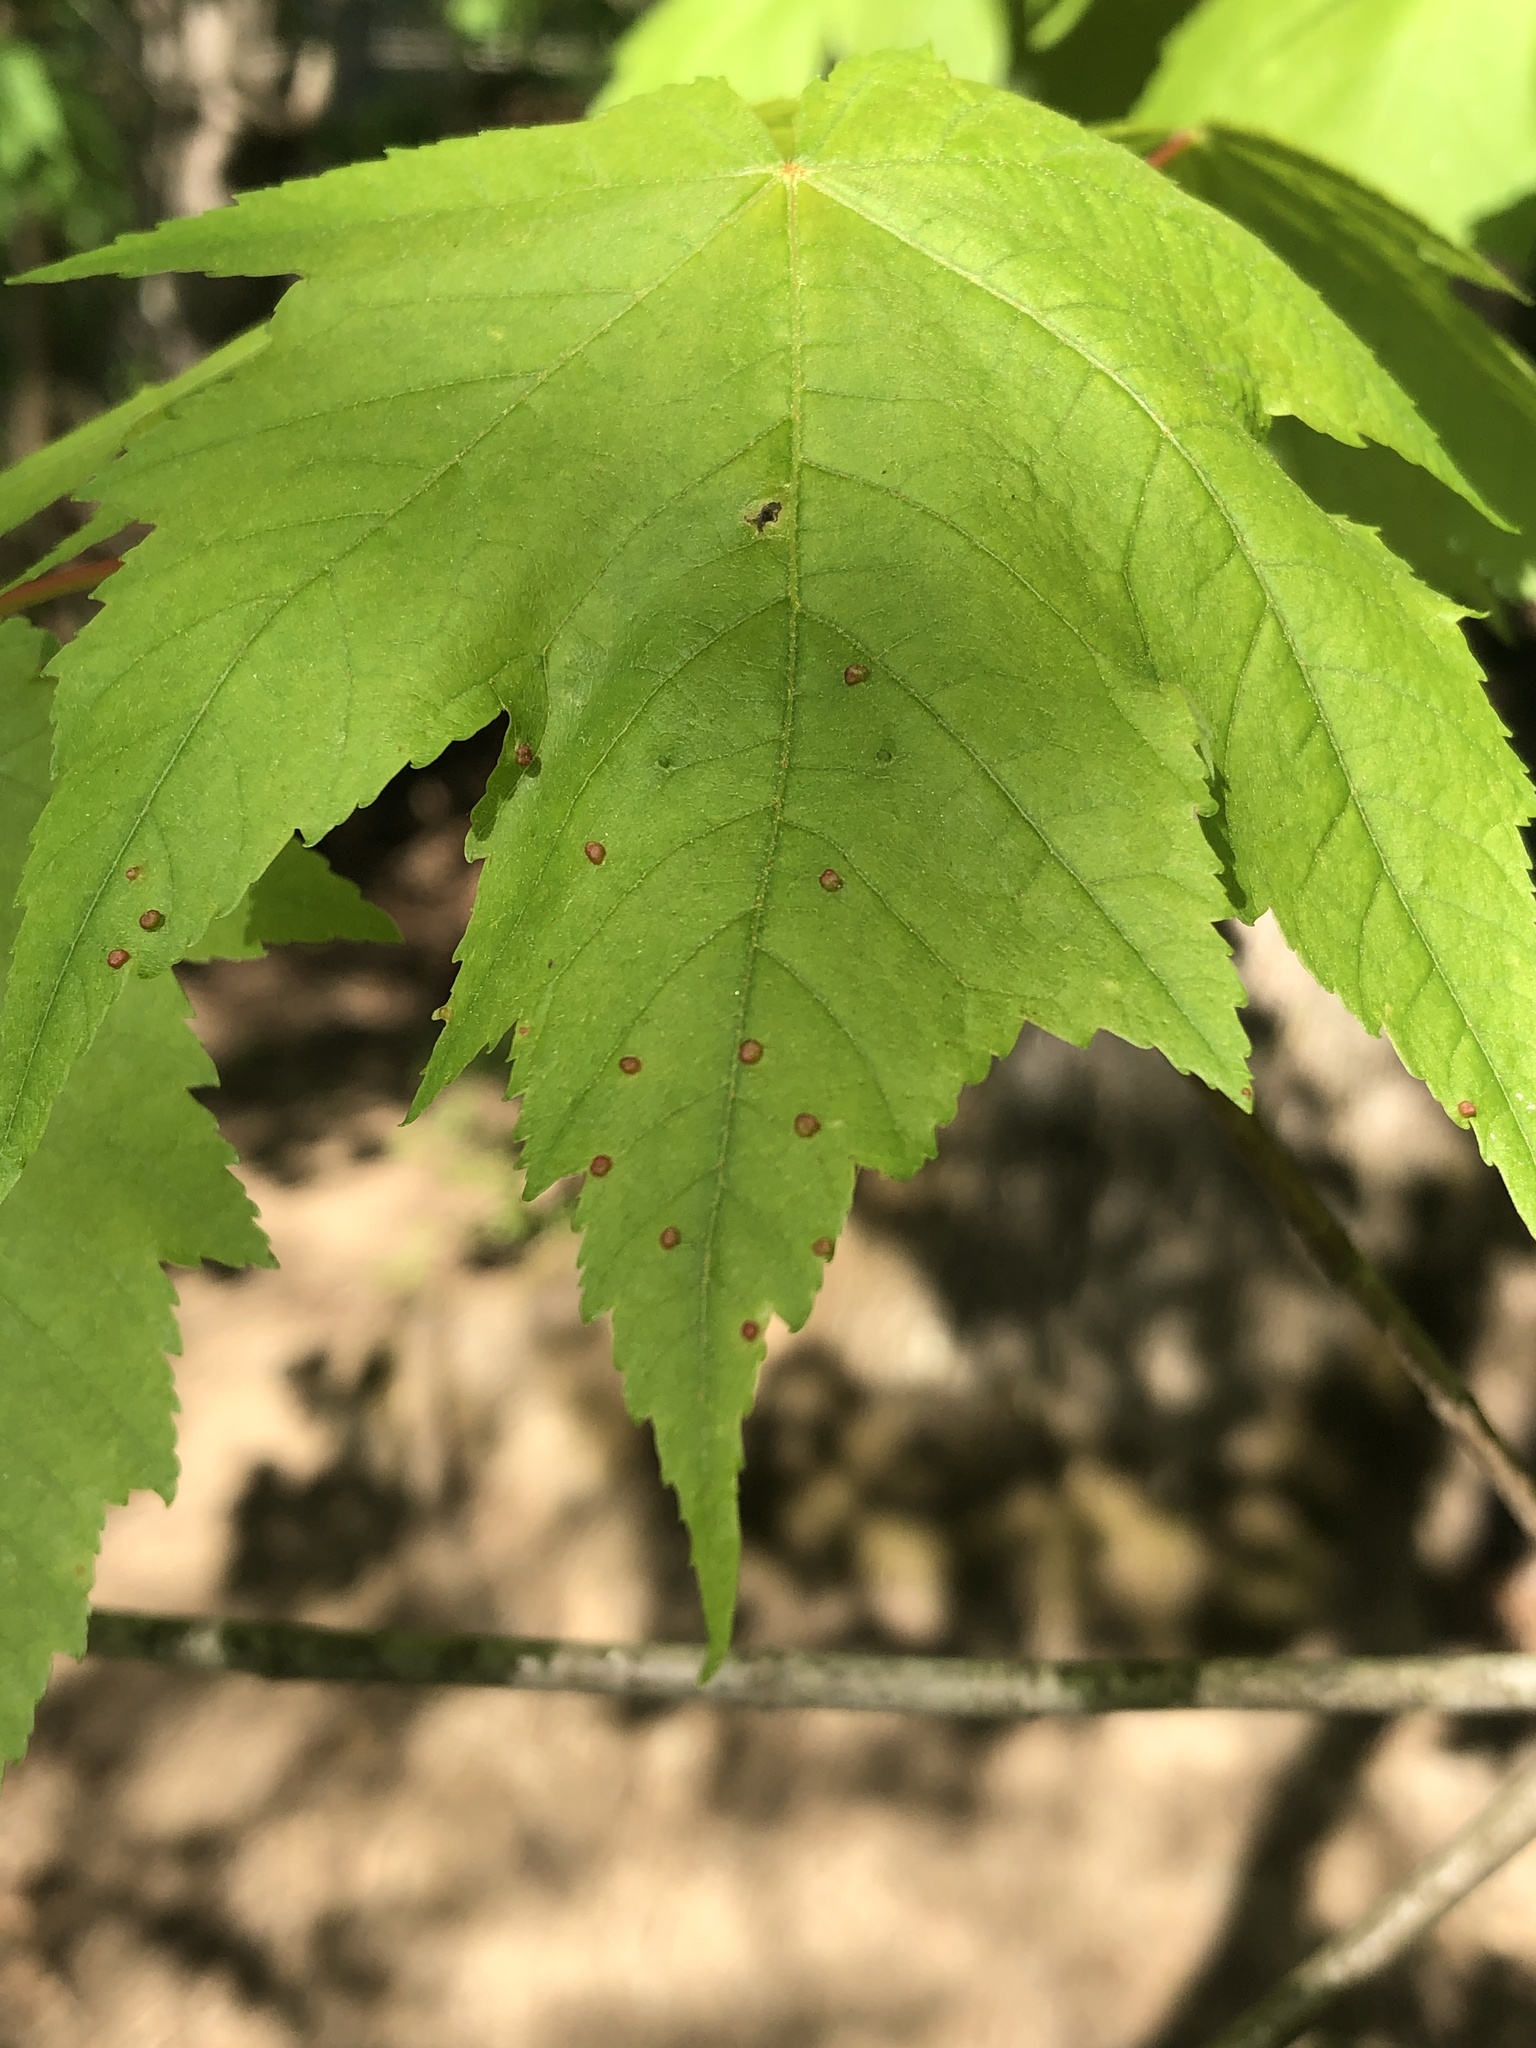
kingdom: Animalia
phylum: Arthropoda
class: Arachnida
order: Trombidiformes
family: Eriophyidae
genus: Vasates
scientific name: Vasates quadripedes
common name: Maple bladder gall mite
